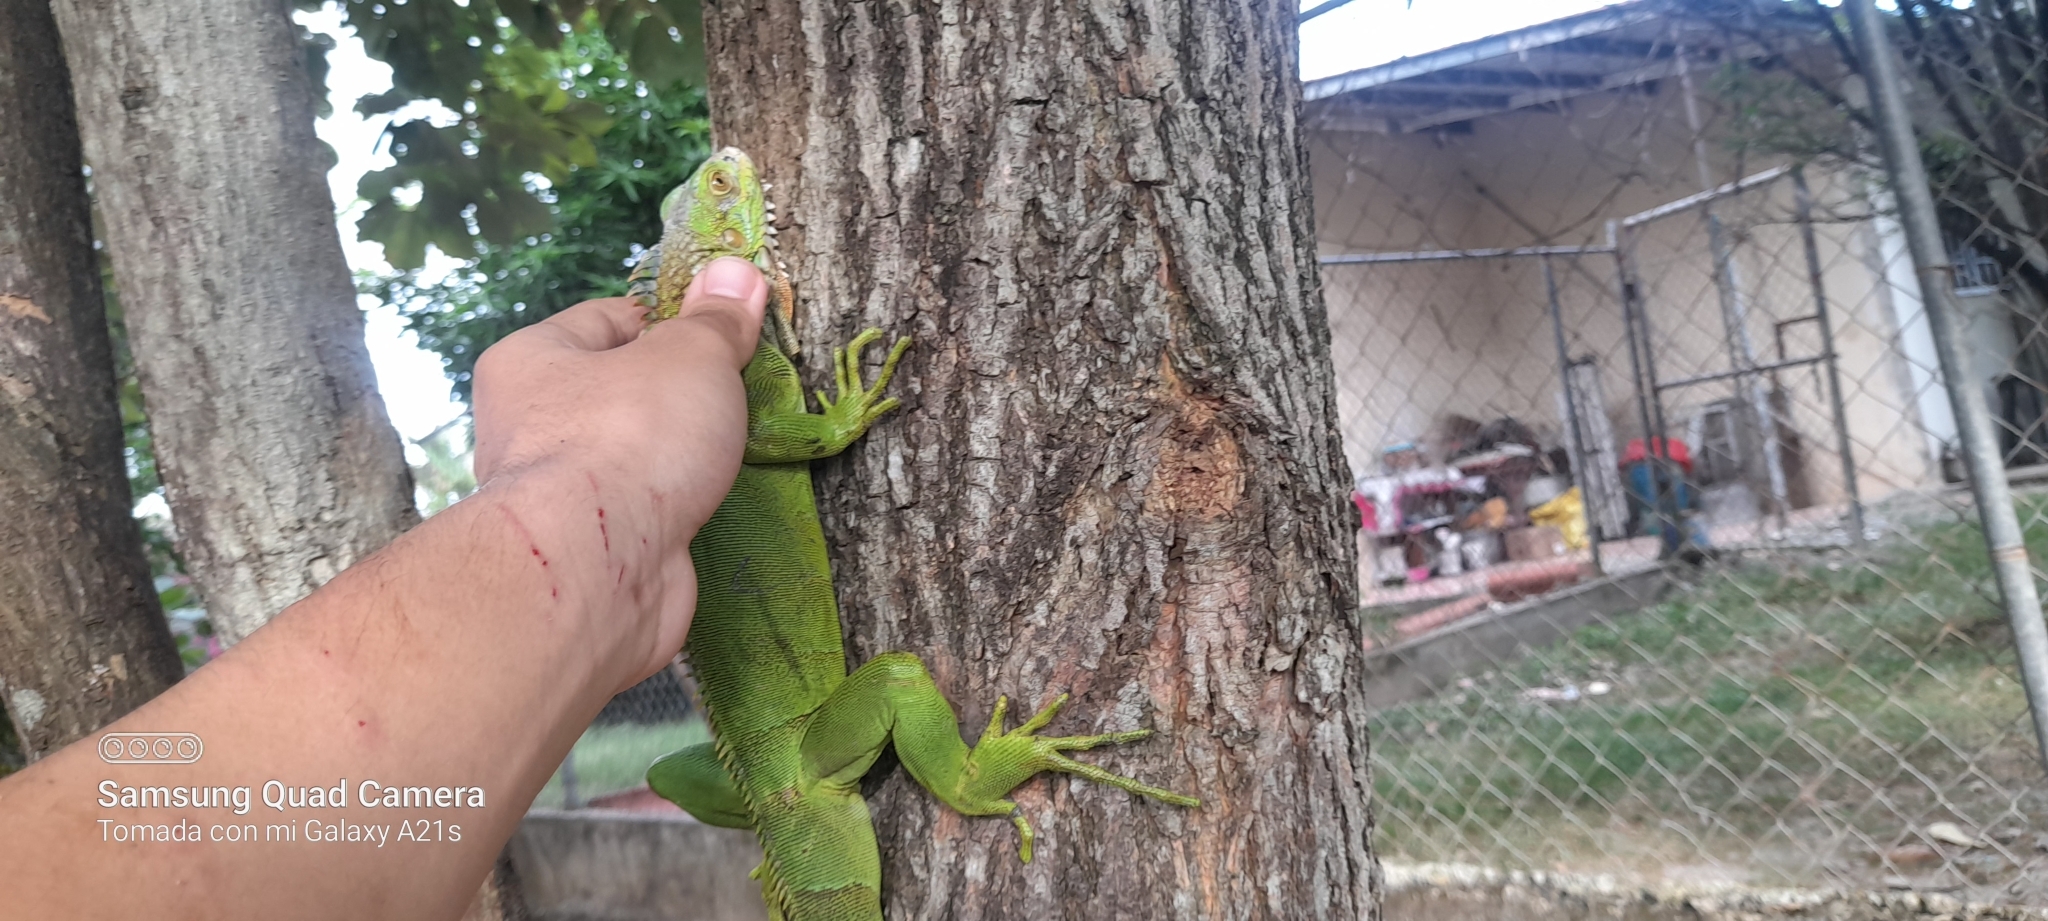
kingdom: Animalia
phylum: Chordata
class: Squamata
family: Iguanidae
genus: Iguana
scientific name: Iguana iguana
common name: Green iguana
